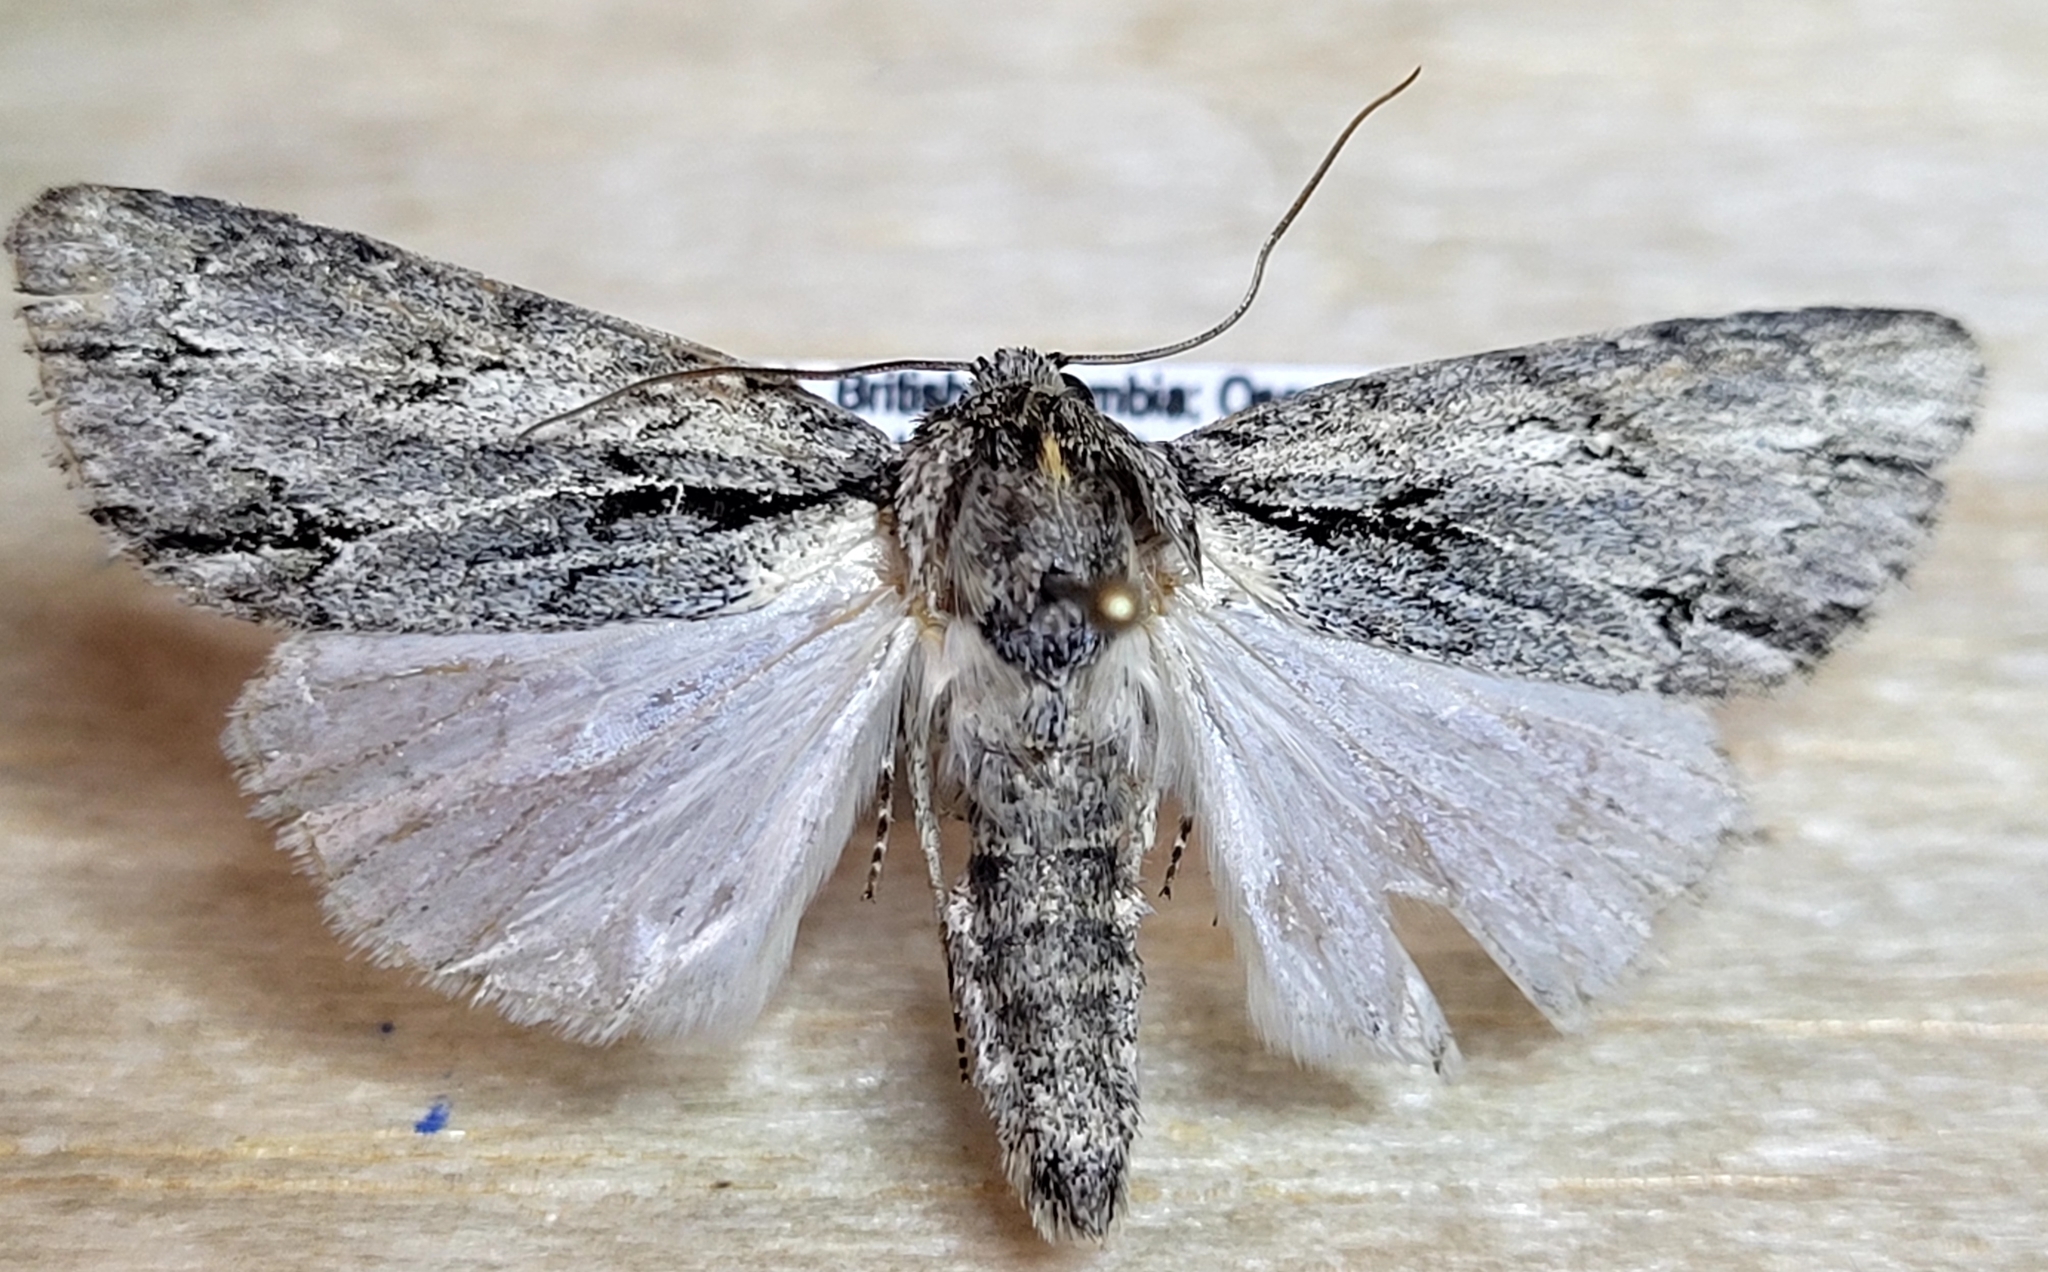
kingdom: Animalia
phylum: Arthropoda
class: Insecta
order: Lepidoptera
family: Noctuidae
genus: Acronicta
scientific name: Acronicta strigulata
